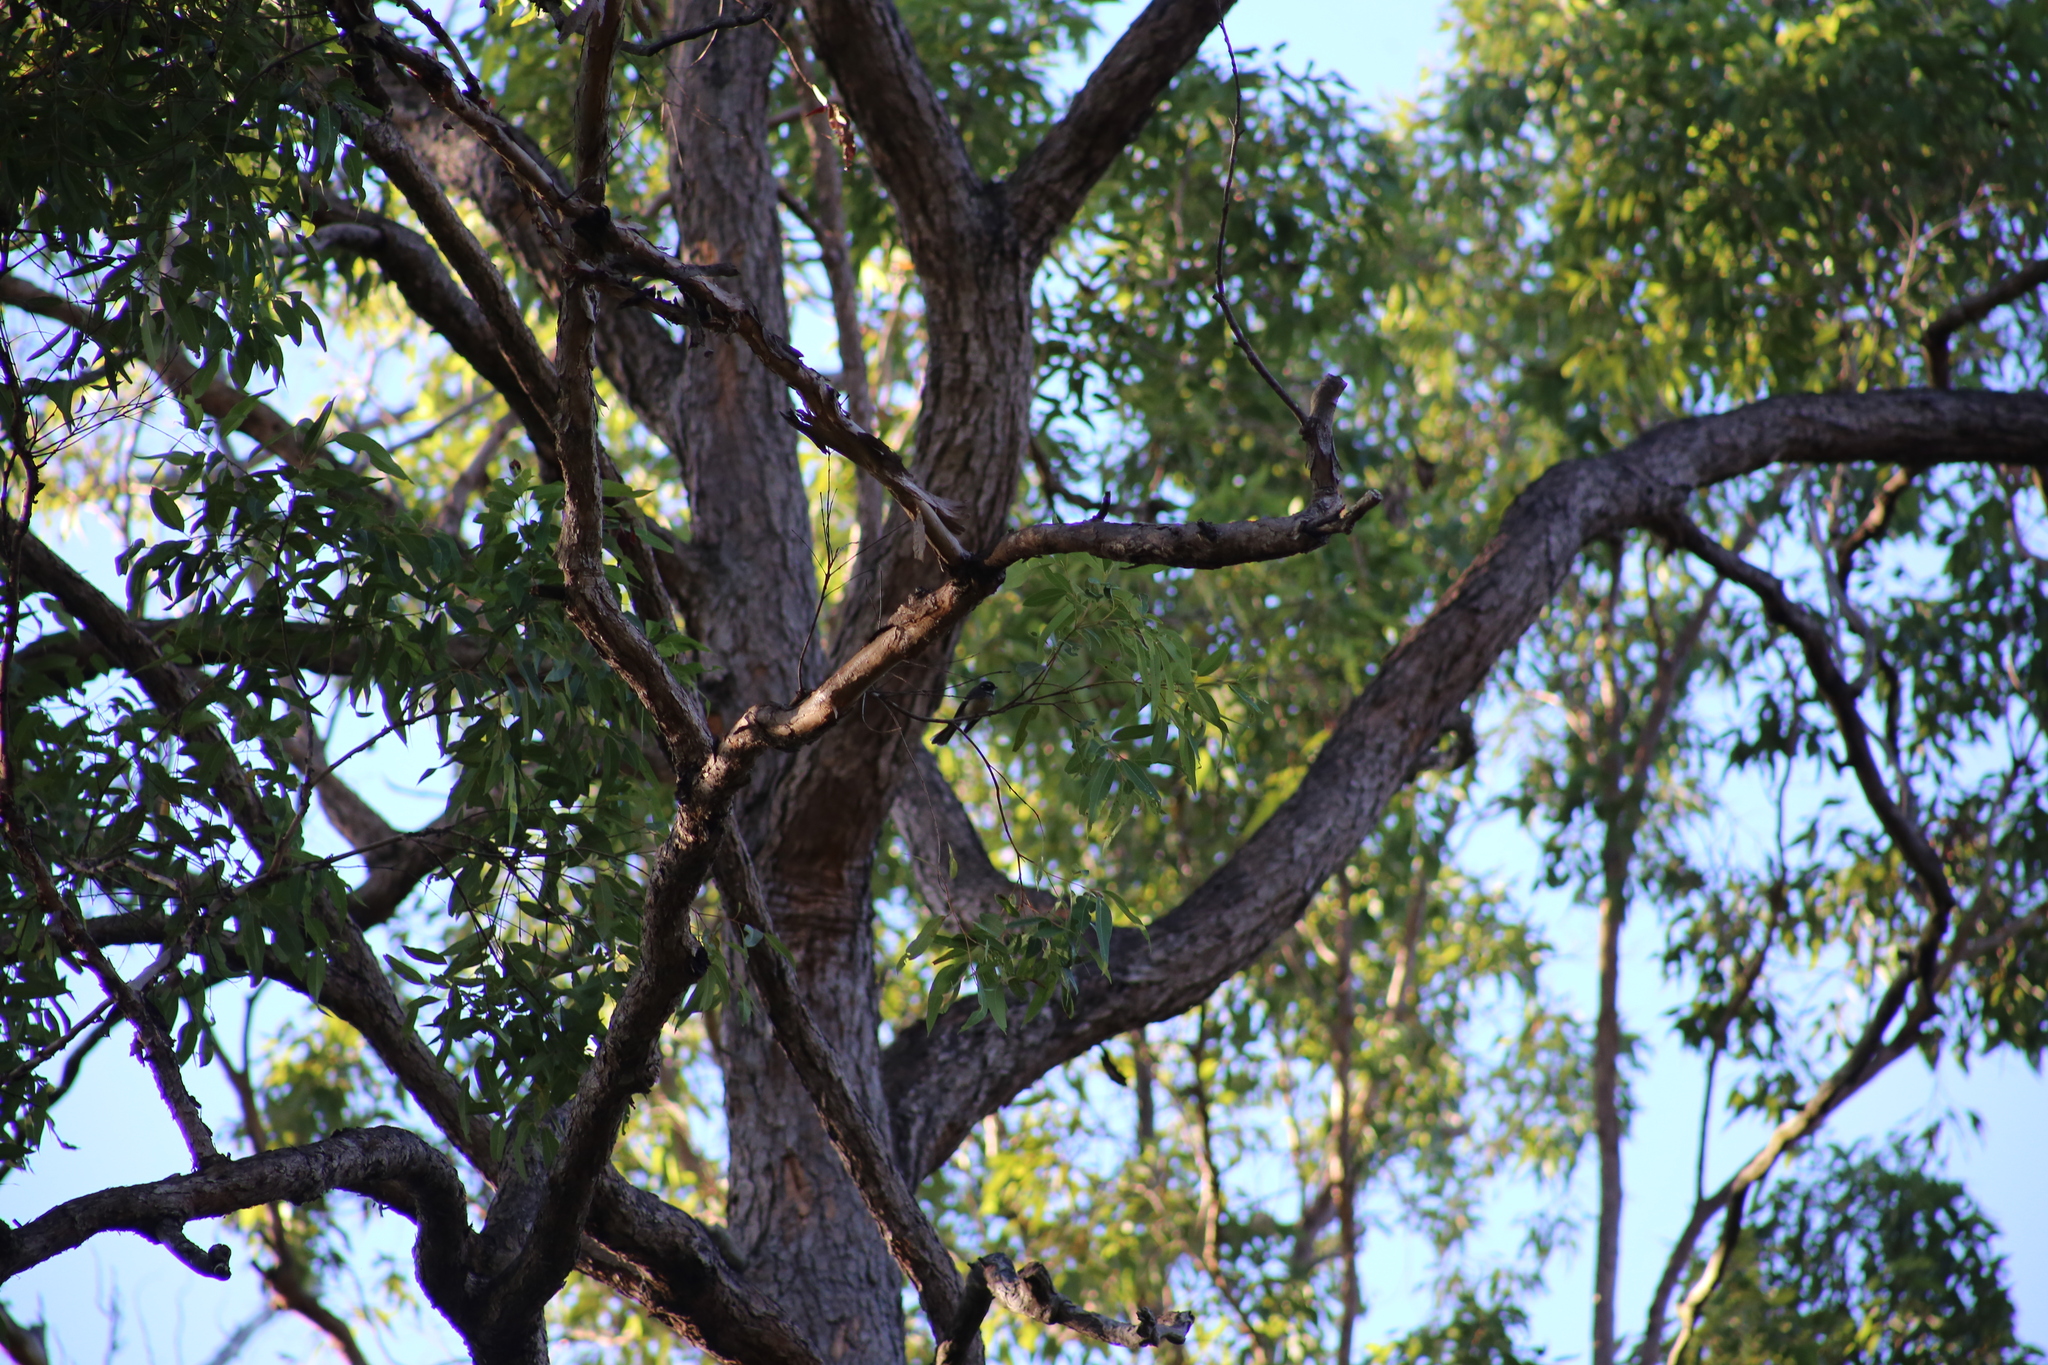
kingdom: Animalia
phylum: Chordata
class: Aves
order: Passeriformes
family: Rhipiduridae
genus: Rhipidura
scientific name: Rhipidura albiscapa
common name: Grey fantail
